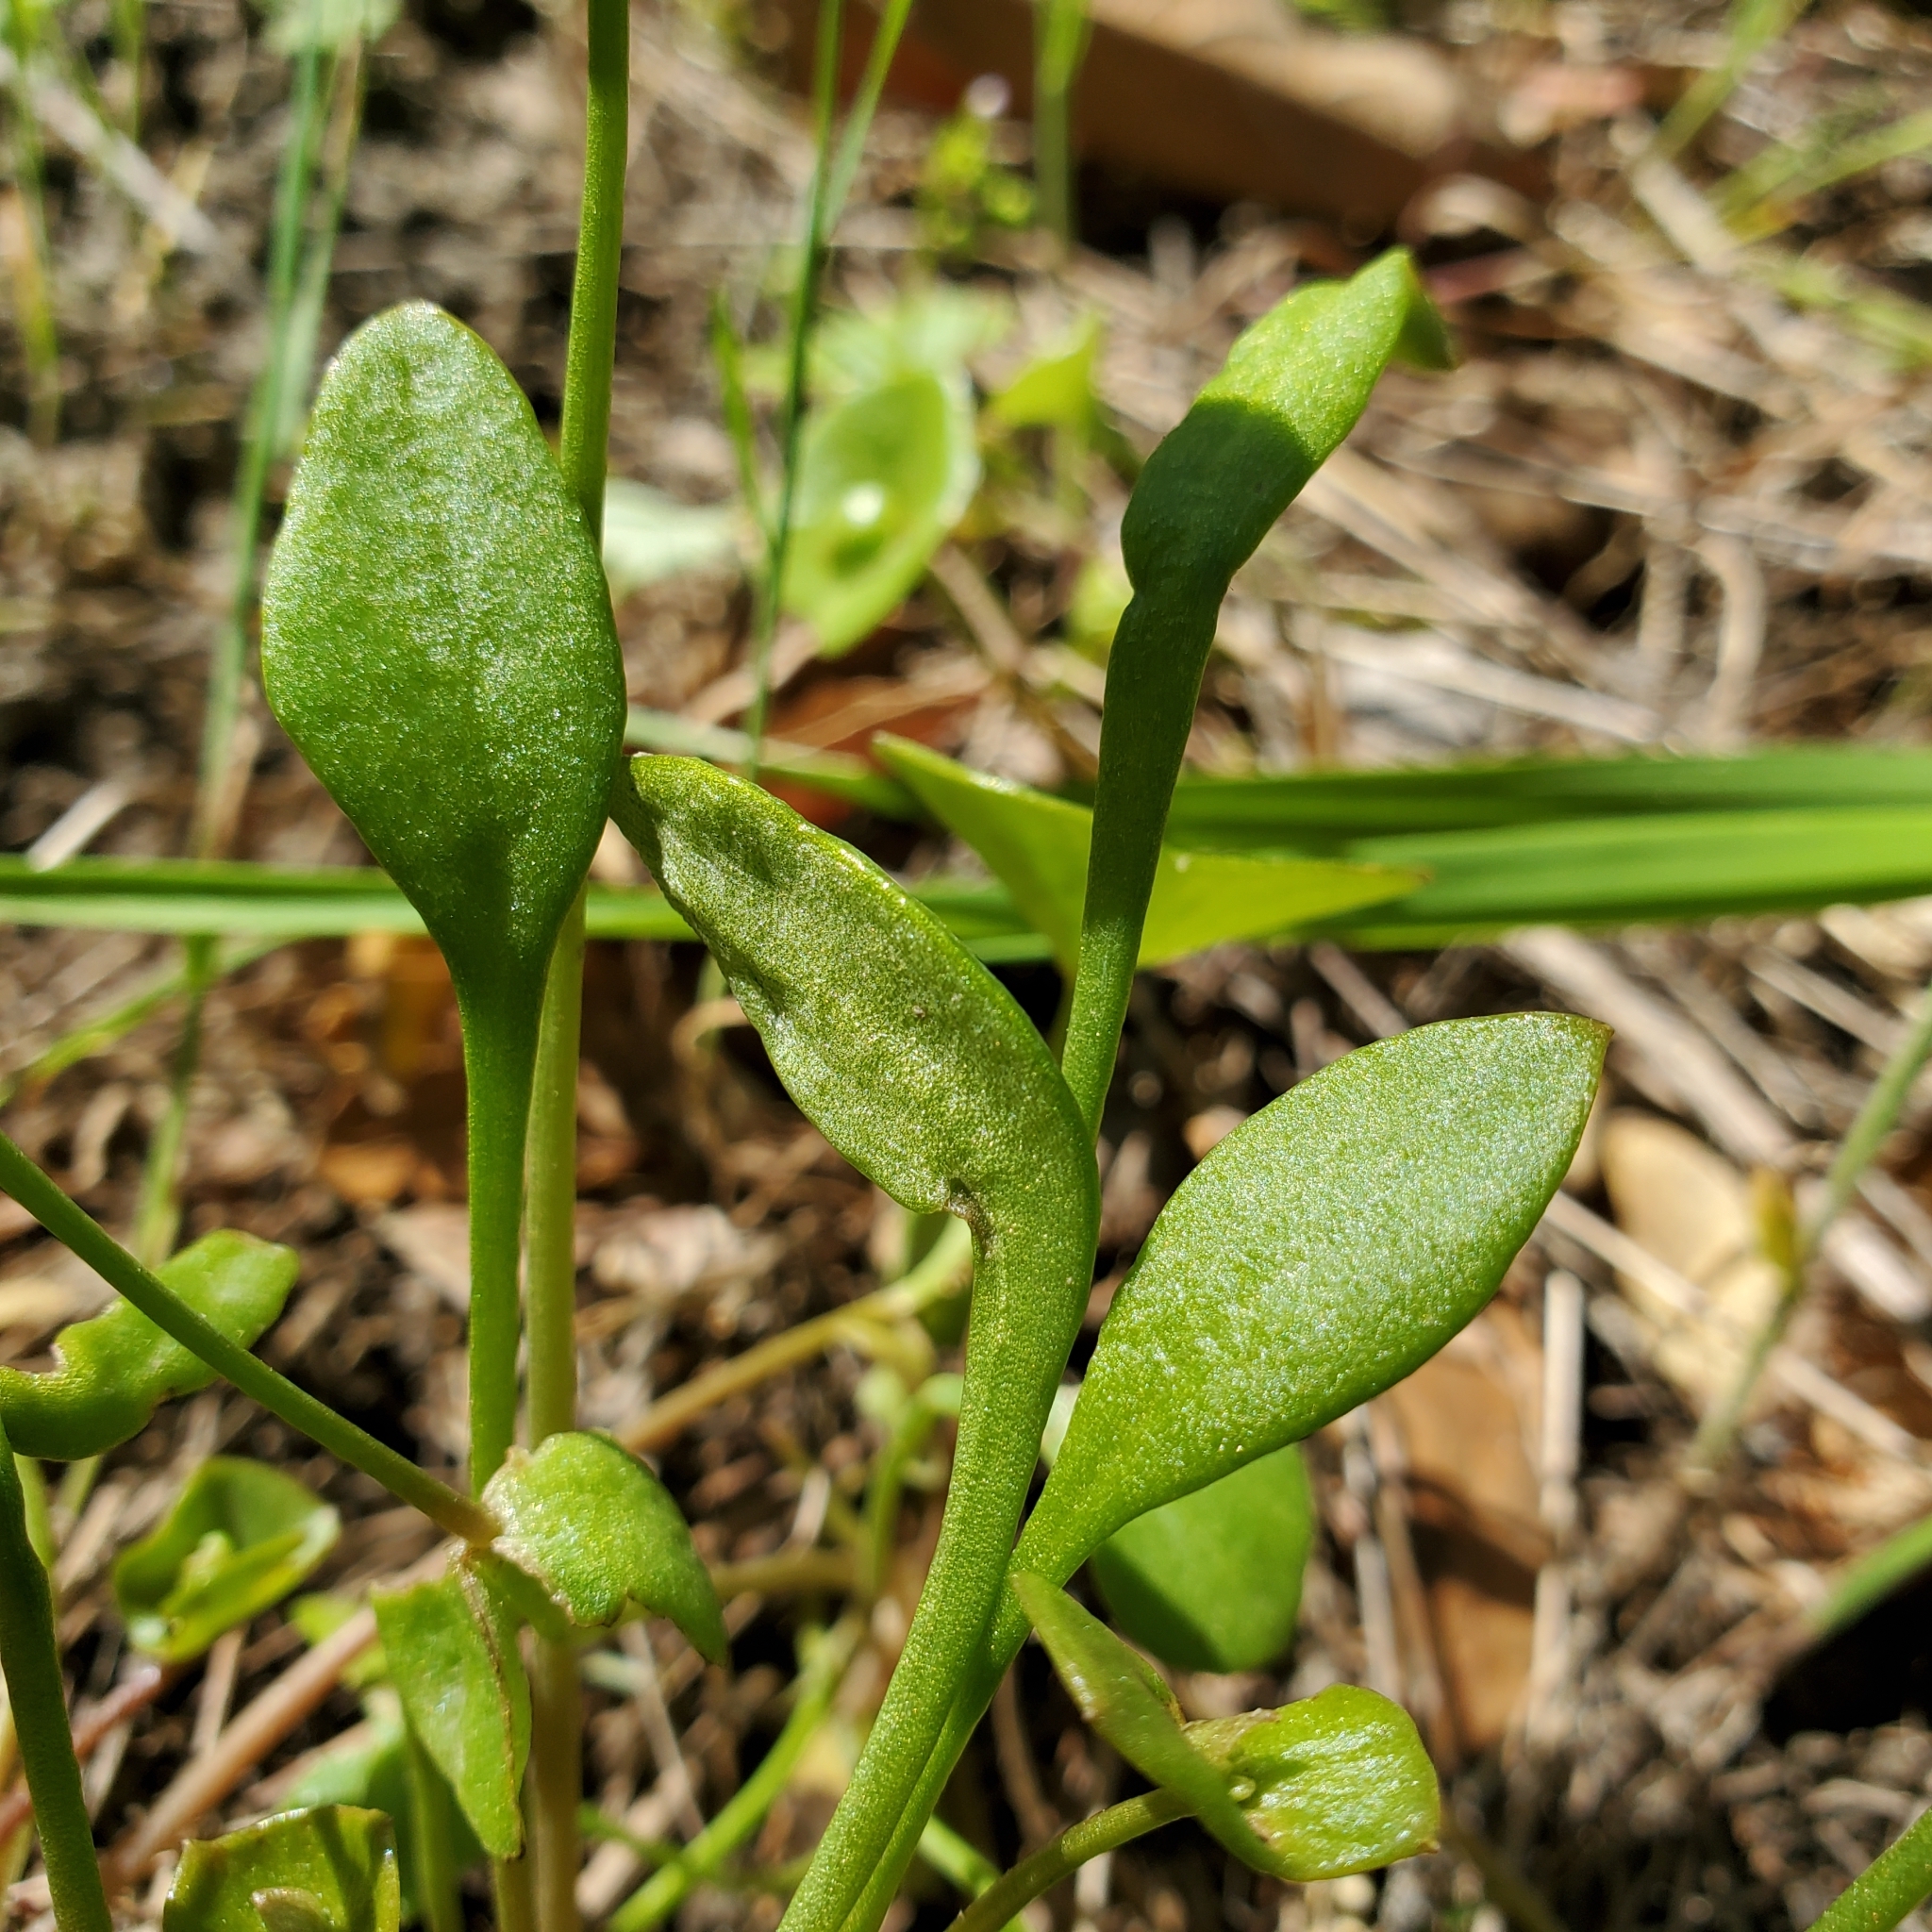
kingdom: Plantae
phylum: Tracheophyta
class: Magnoliopsida
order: Caryophyllales
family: Montiaceae
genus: Claytonia
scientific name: Claytonia perfoliata
